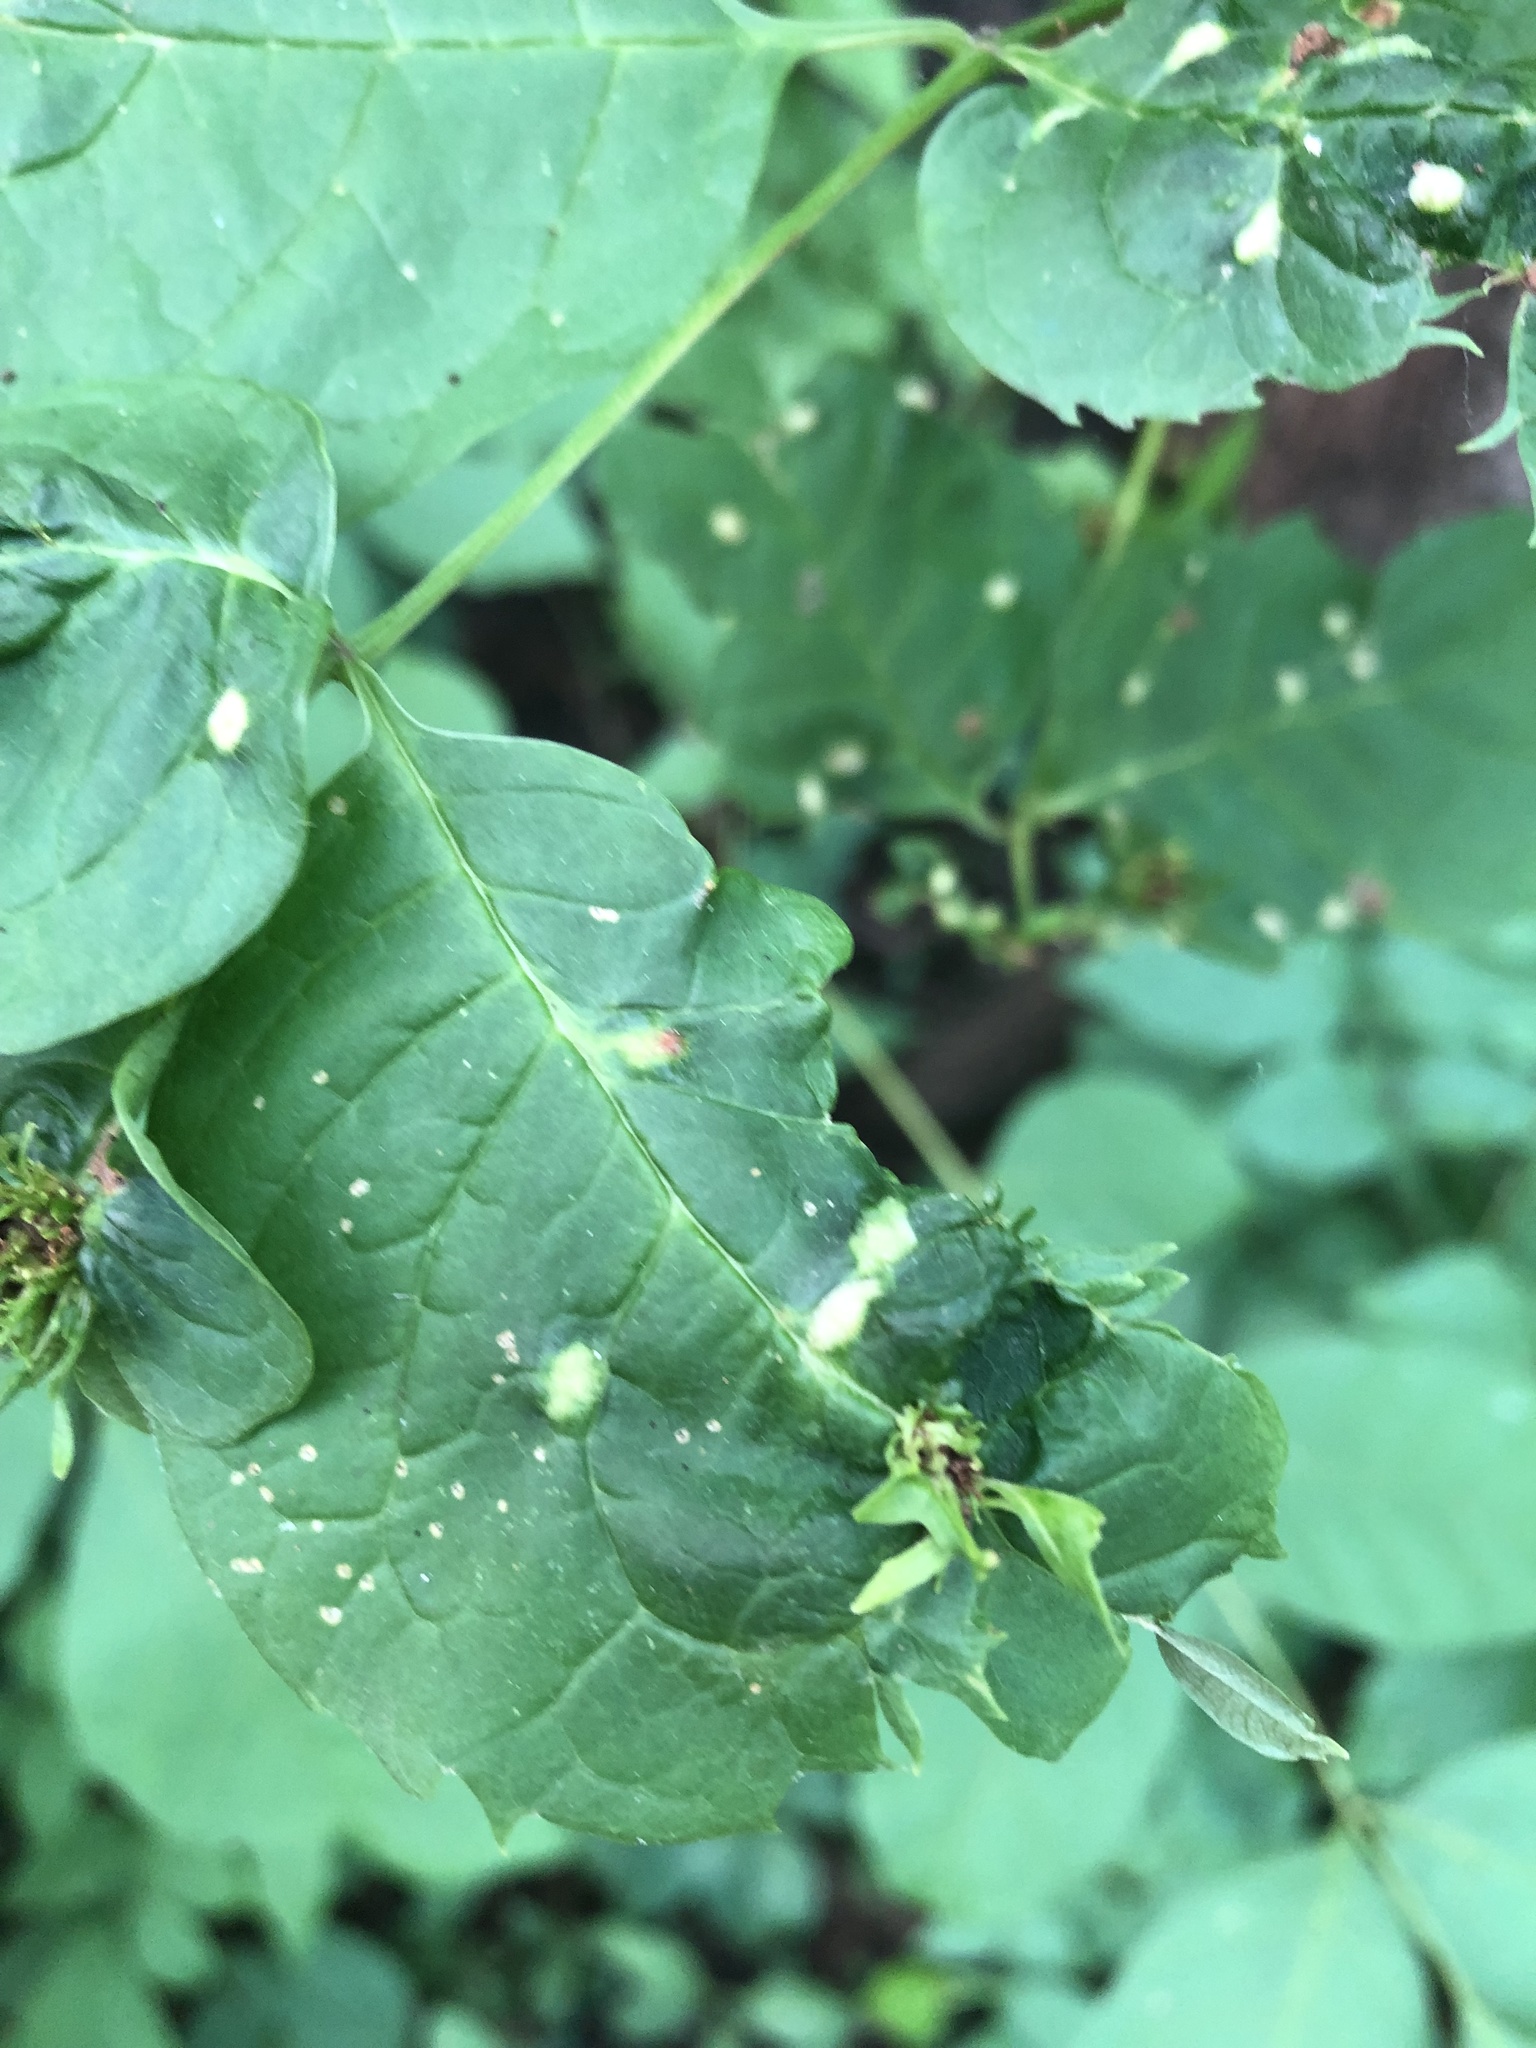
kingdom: Animalia
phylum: Arthropoda
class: Arachnida
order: Trombidiformes
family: Eriophyidae
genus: Aceria
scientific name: Aceria fraxinicola
